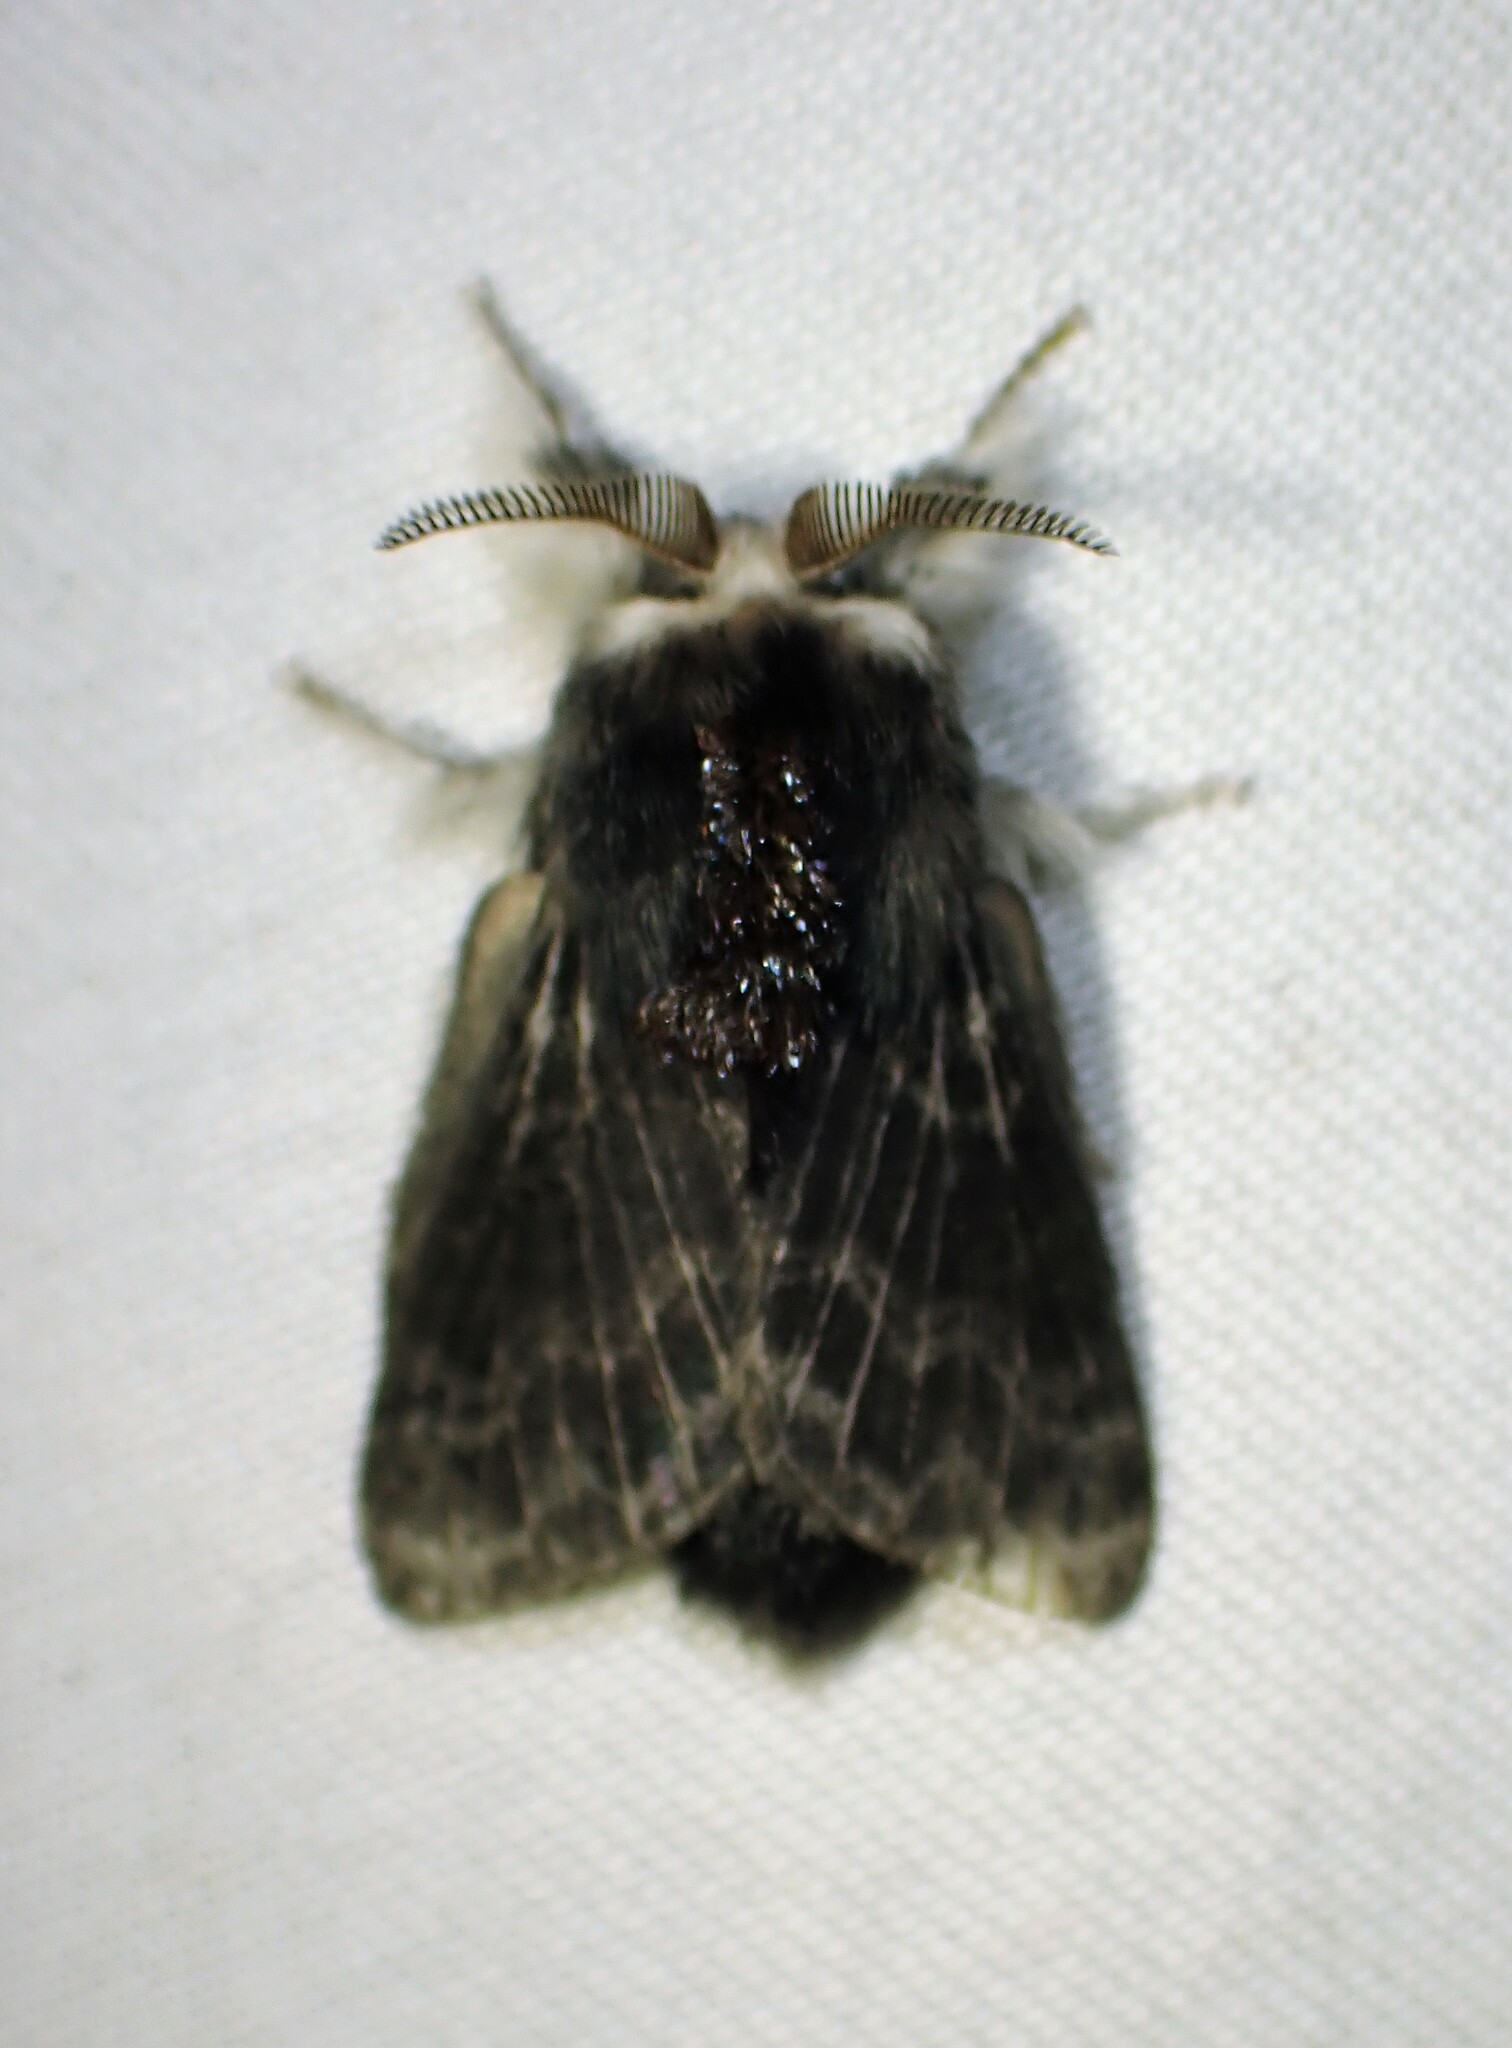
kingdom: Animalia
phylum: Arthropoda
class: Insecta
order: Lepidoptera
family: Lasiocampidae
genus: Tolype
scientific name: Tolype laricis
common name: Larch tolype moth
